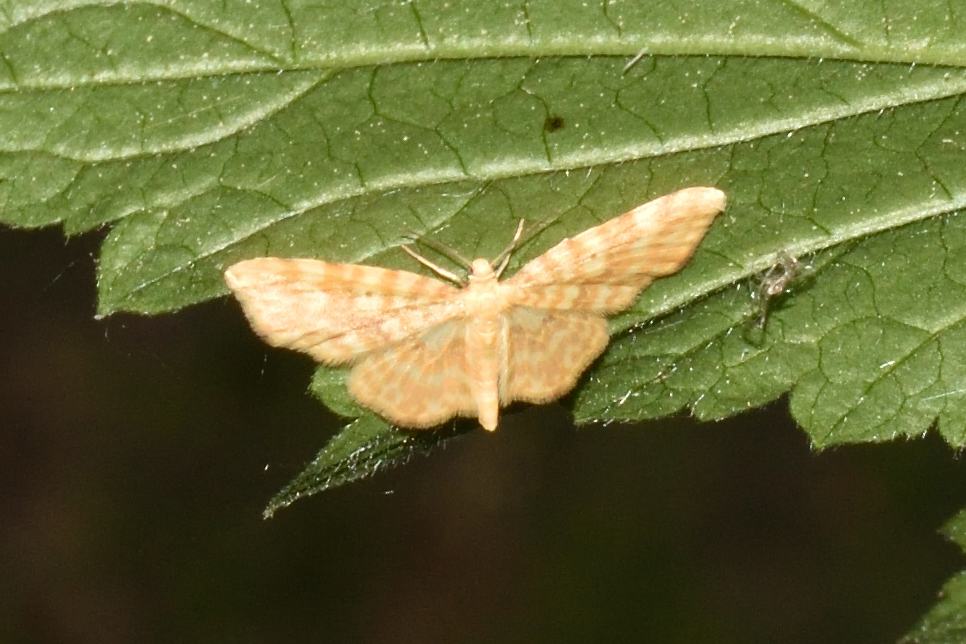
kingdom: Animalia
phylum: Arthropoda
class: Insecta
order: Lepidoptera
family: Geometridae
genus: Hydrelia
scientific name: Hydrelia flammeolaria
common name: Small yellow wave
